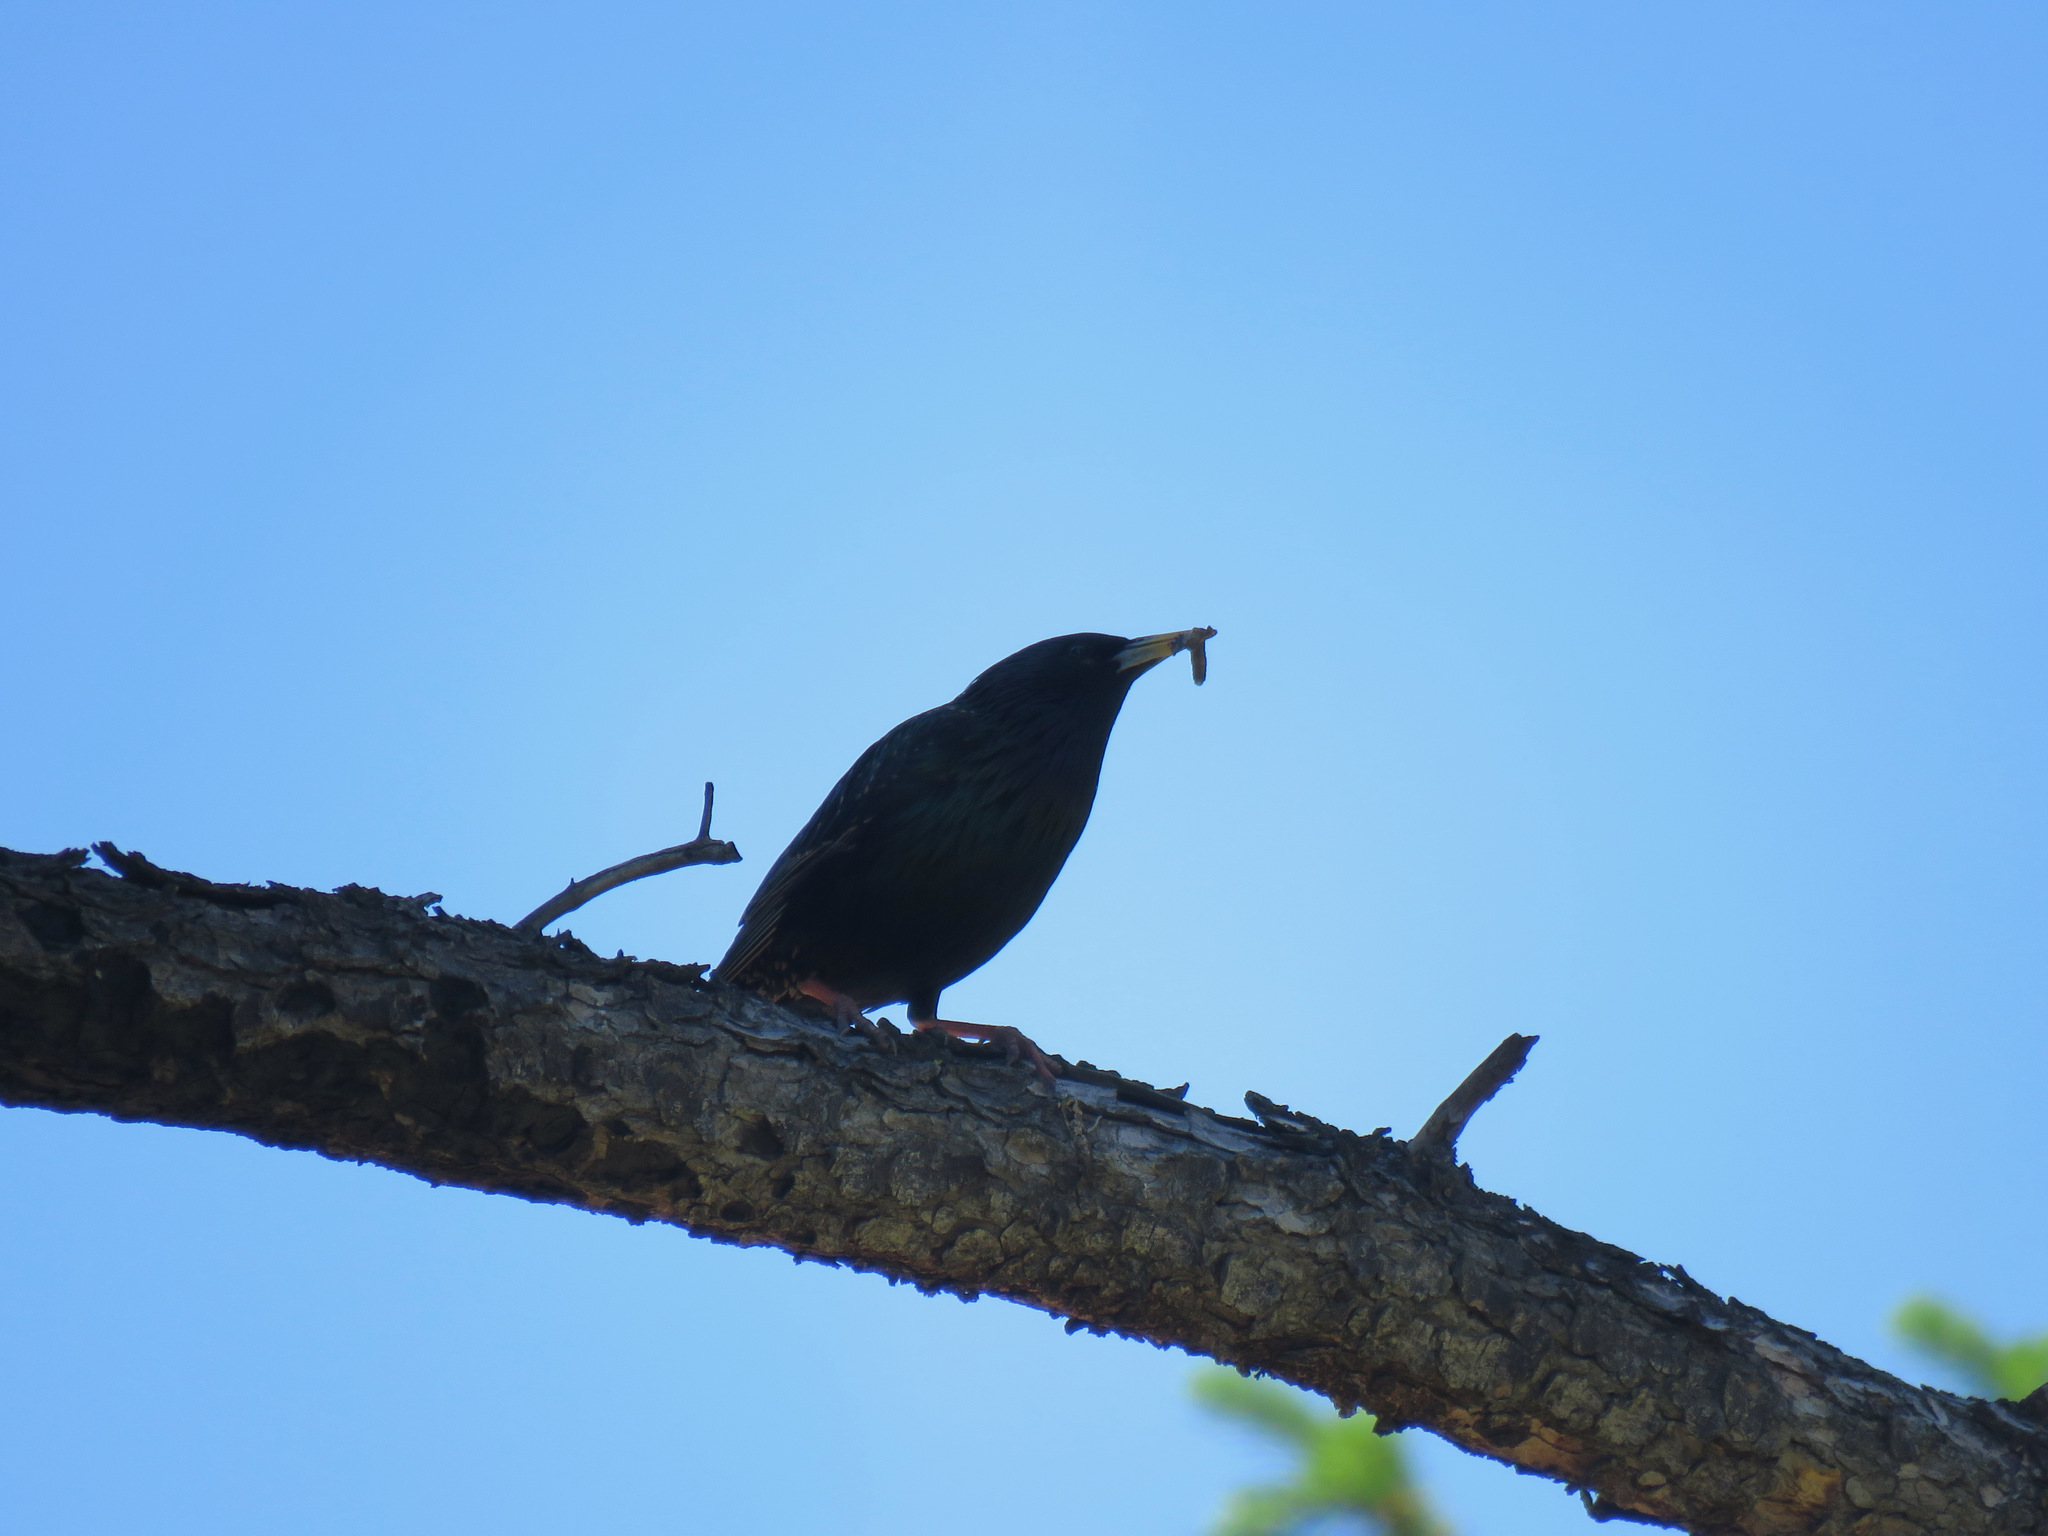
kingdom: Animalia
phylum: Chordata
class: Aves
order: Passeriformes
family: Sturnidae
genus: Sturnus
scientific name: Sturnus vulgaris
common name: Common starling
